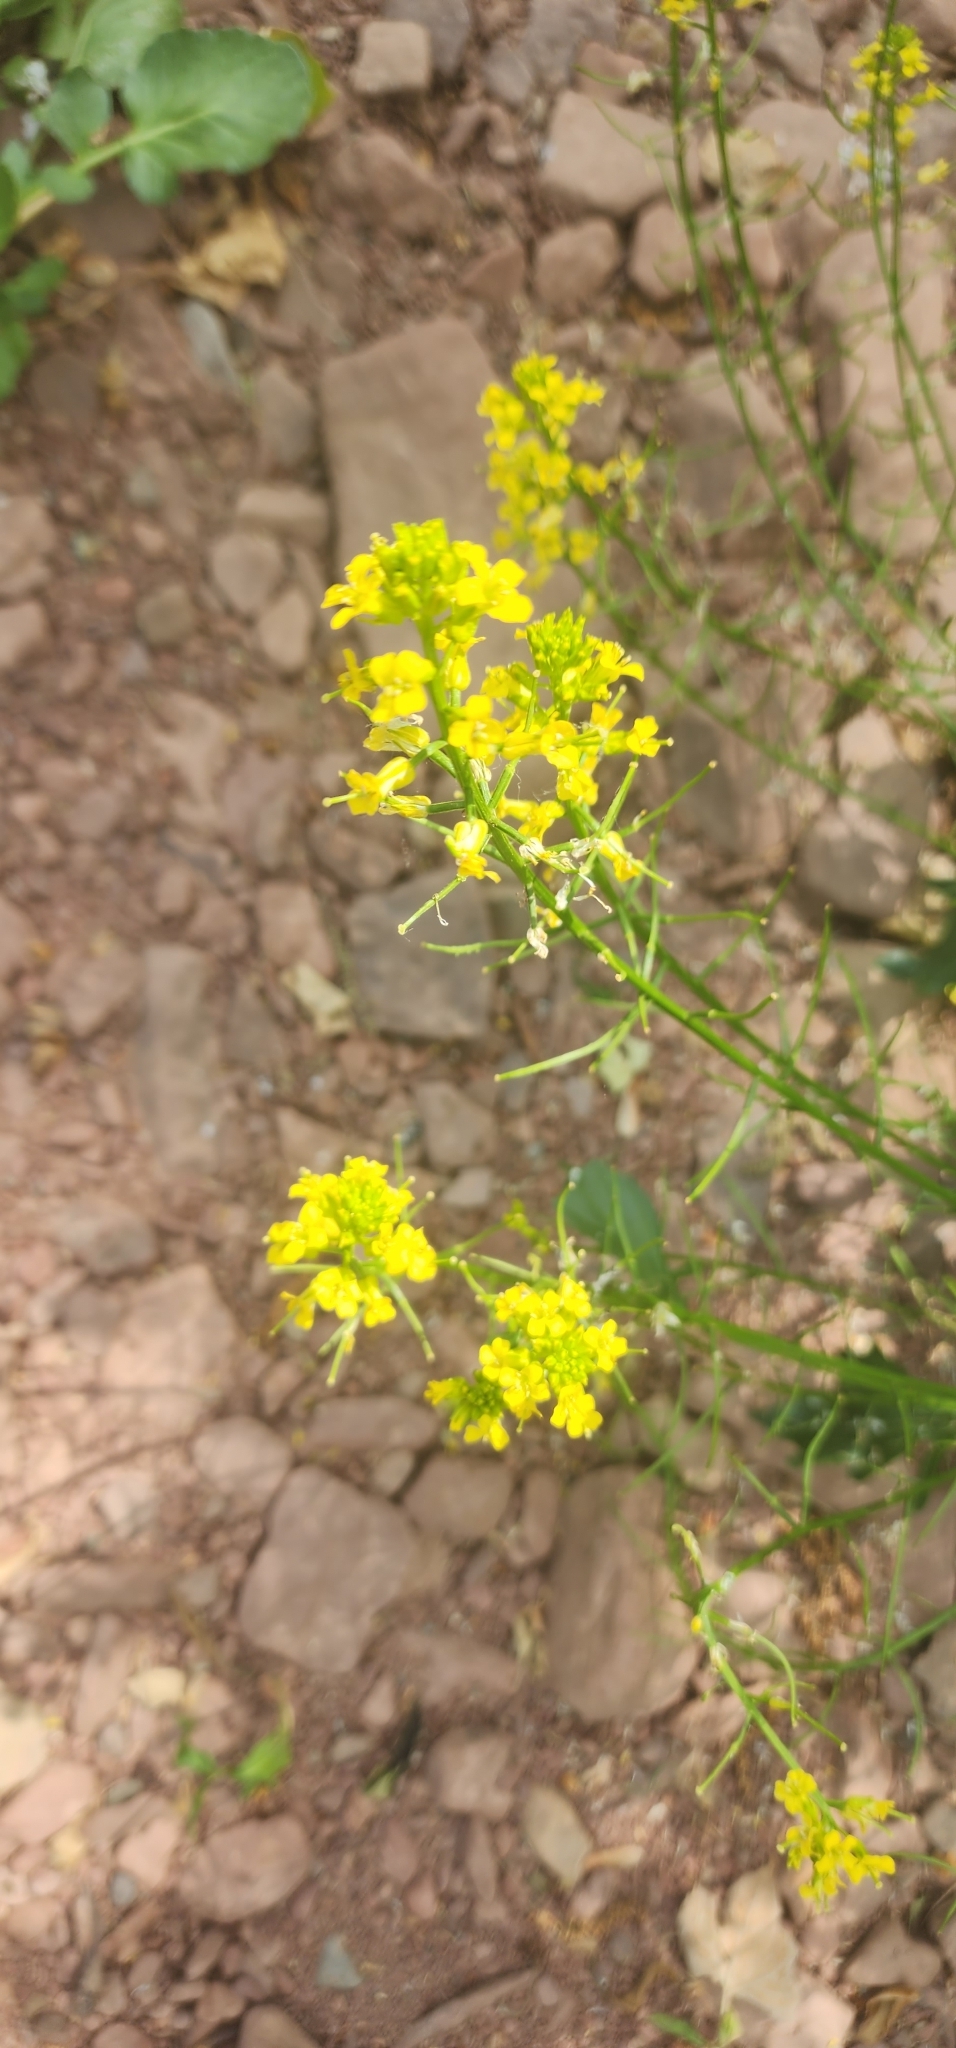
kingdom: Plantae
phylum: Tracheophyta
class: Magnoliopsida
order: Brassicales
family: Brassicaceae
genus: Barbarea
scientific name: Barbarea vulgaris
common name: Cressy-greens
